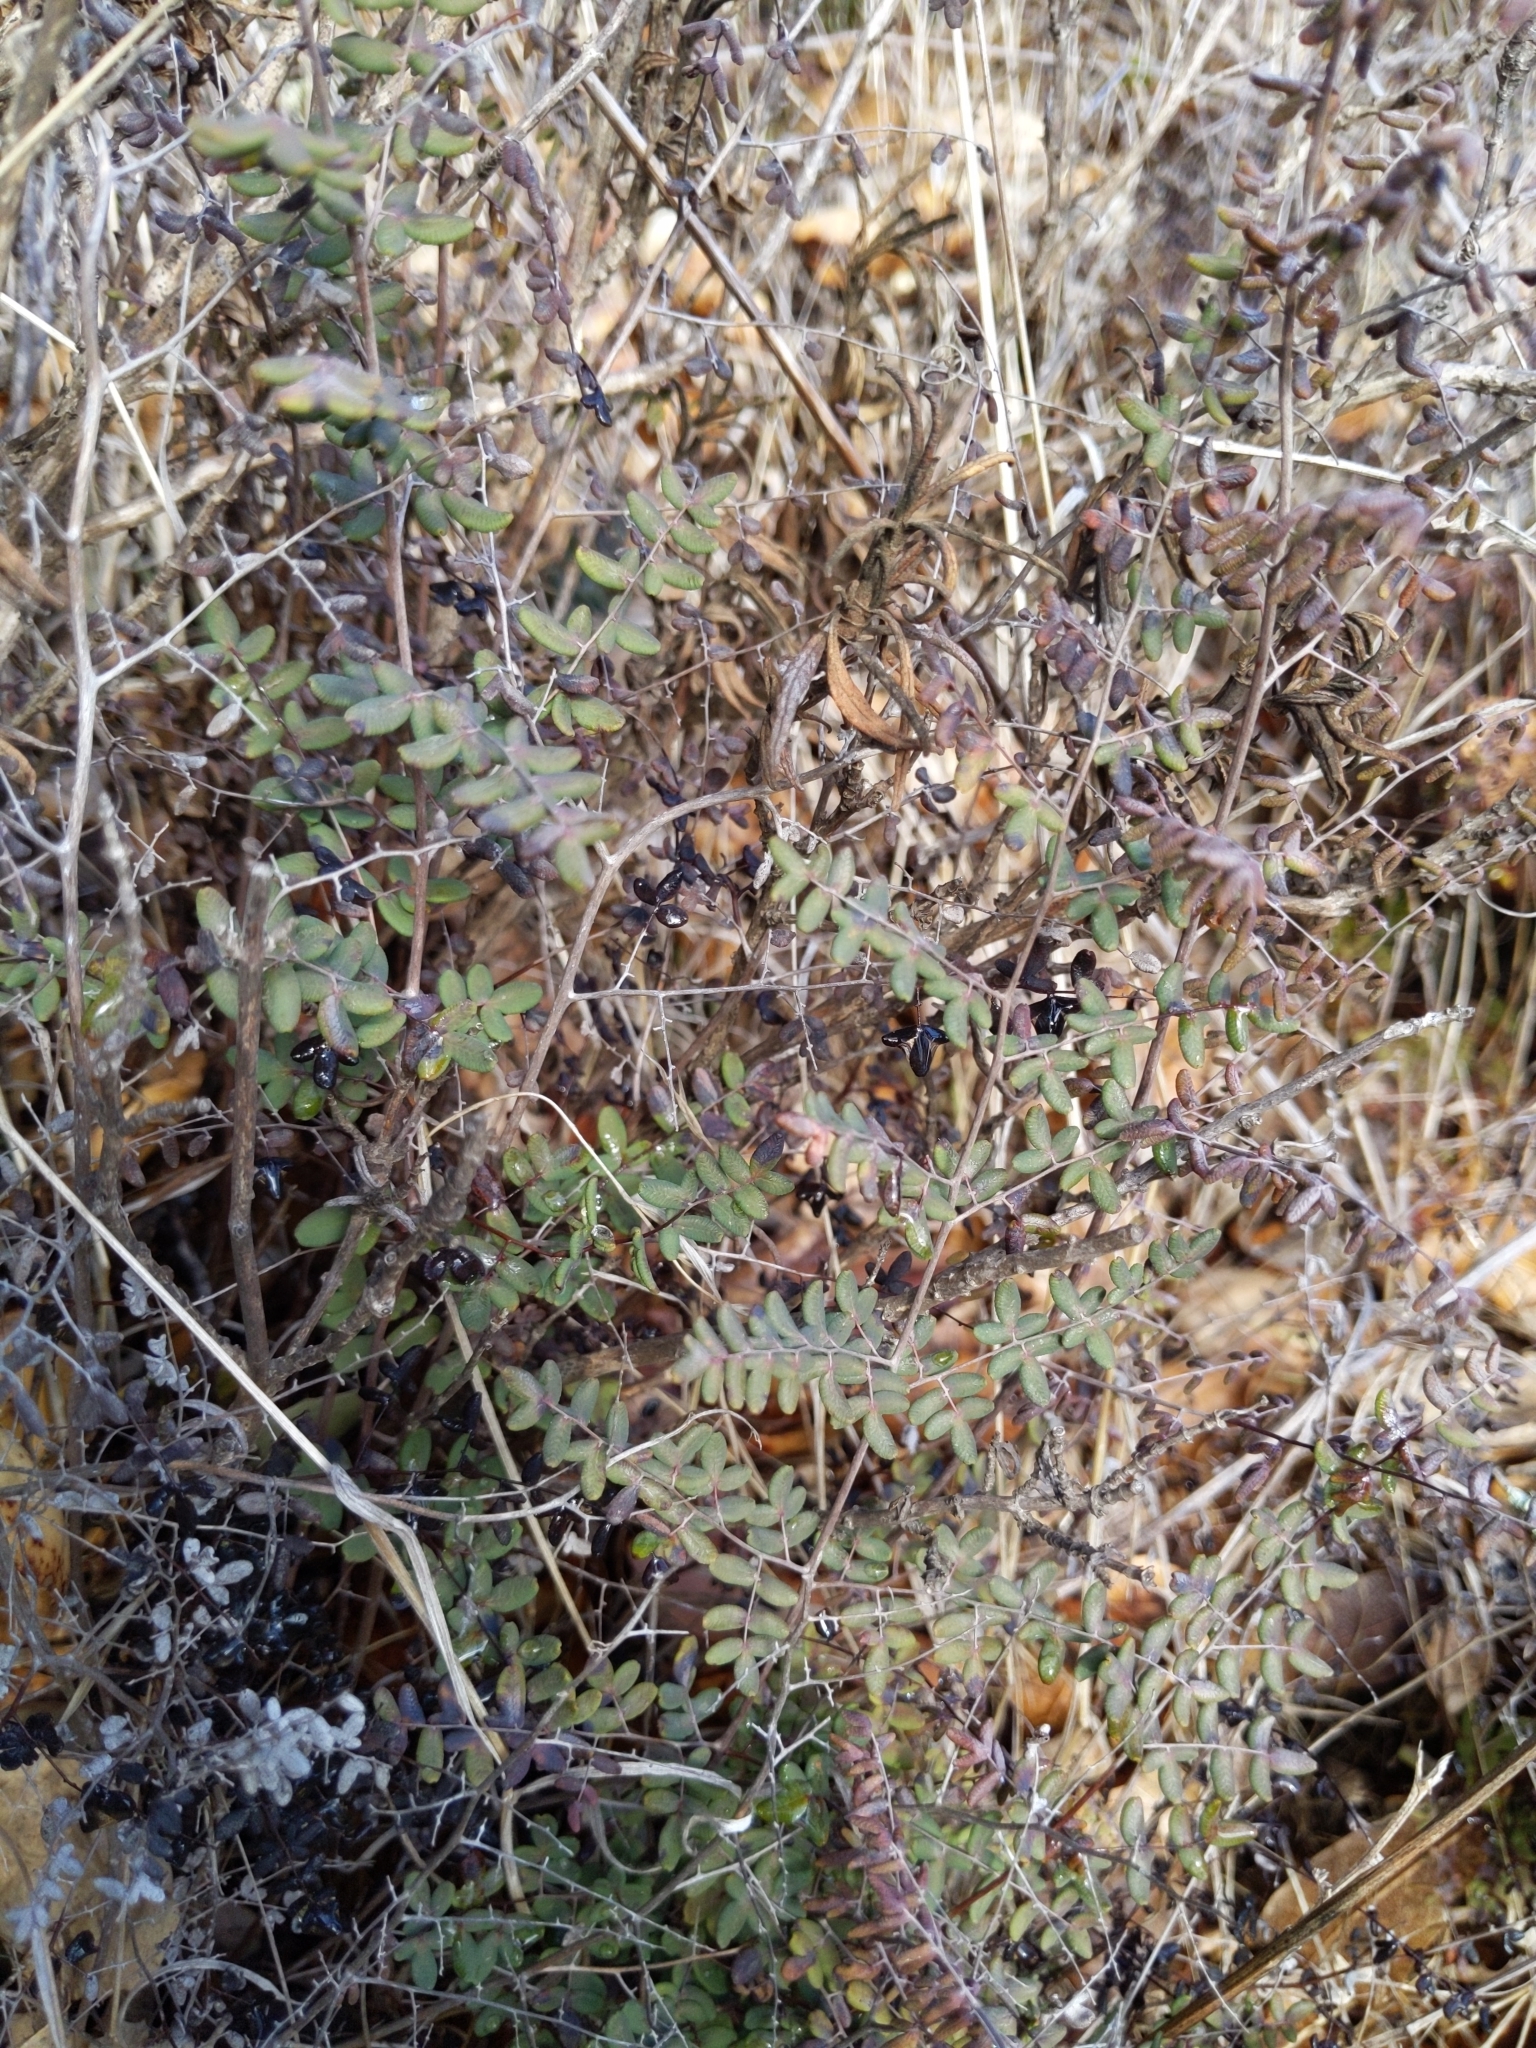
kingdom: Plantae
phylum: Tracheophyta
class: Polypodiopsida
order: Polypodiales
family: Pteridaceae
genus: Pellaea
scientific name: Pellaea andromedifolia
